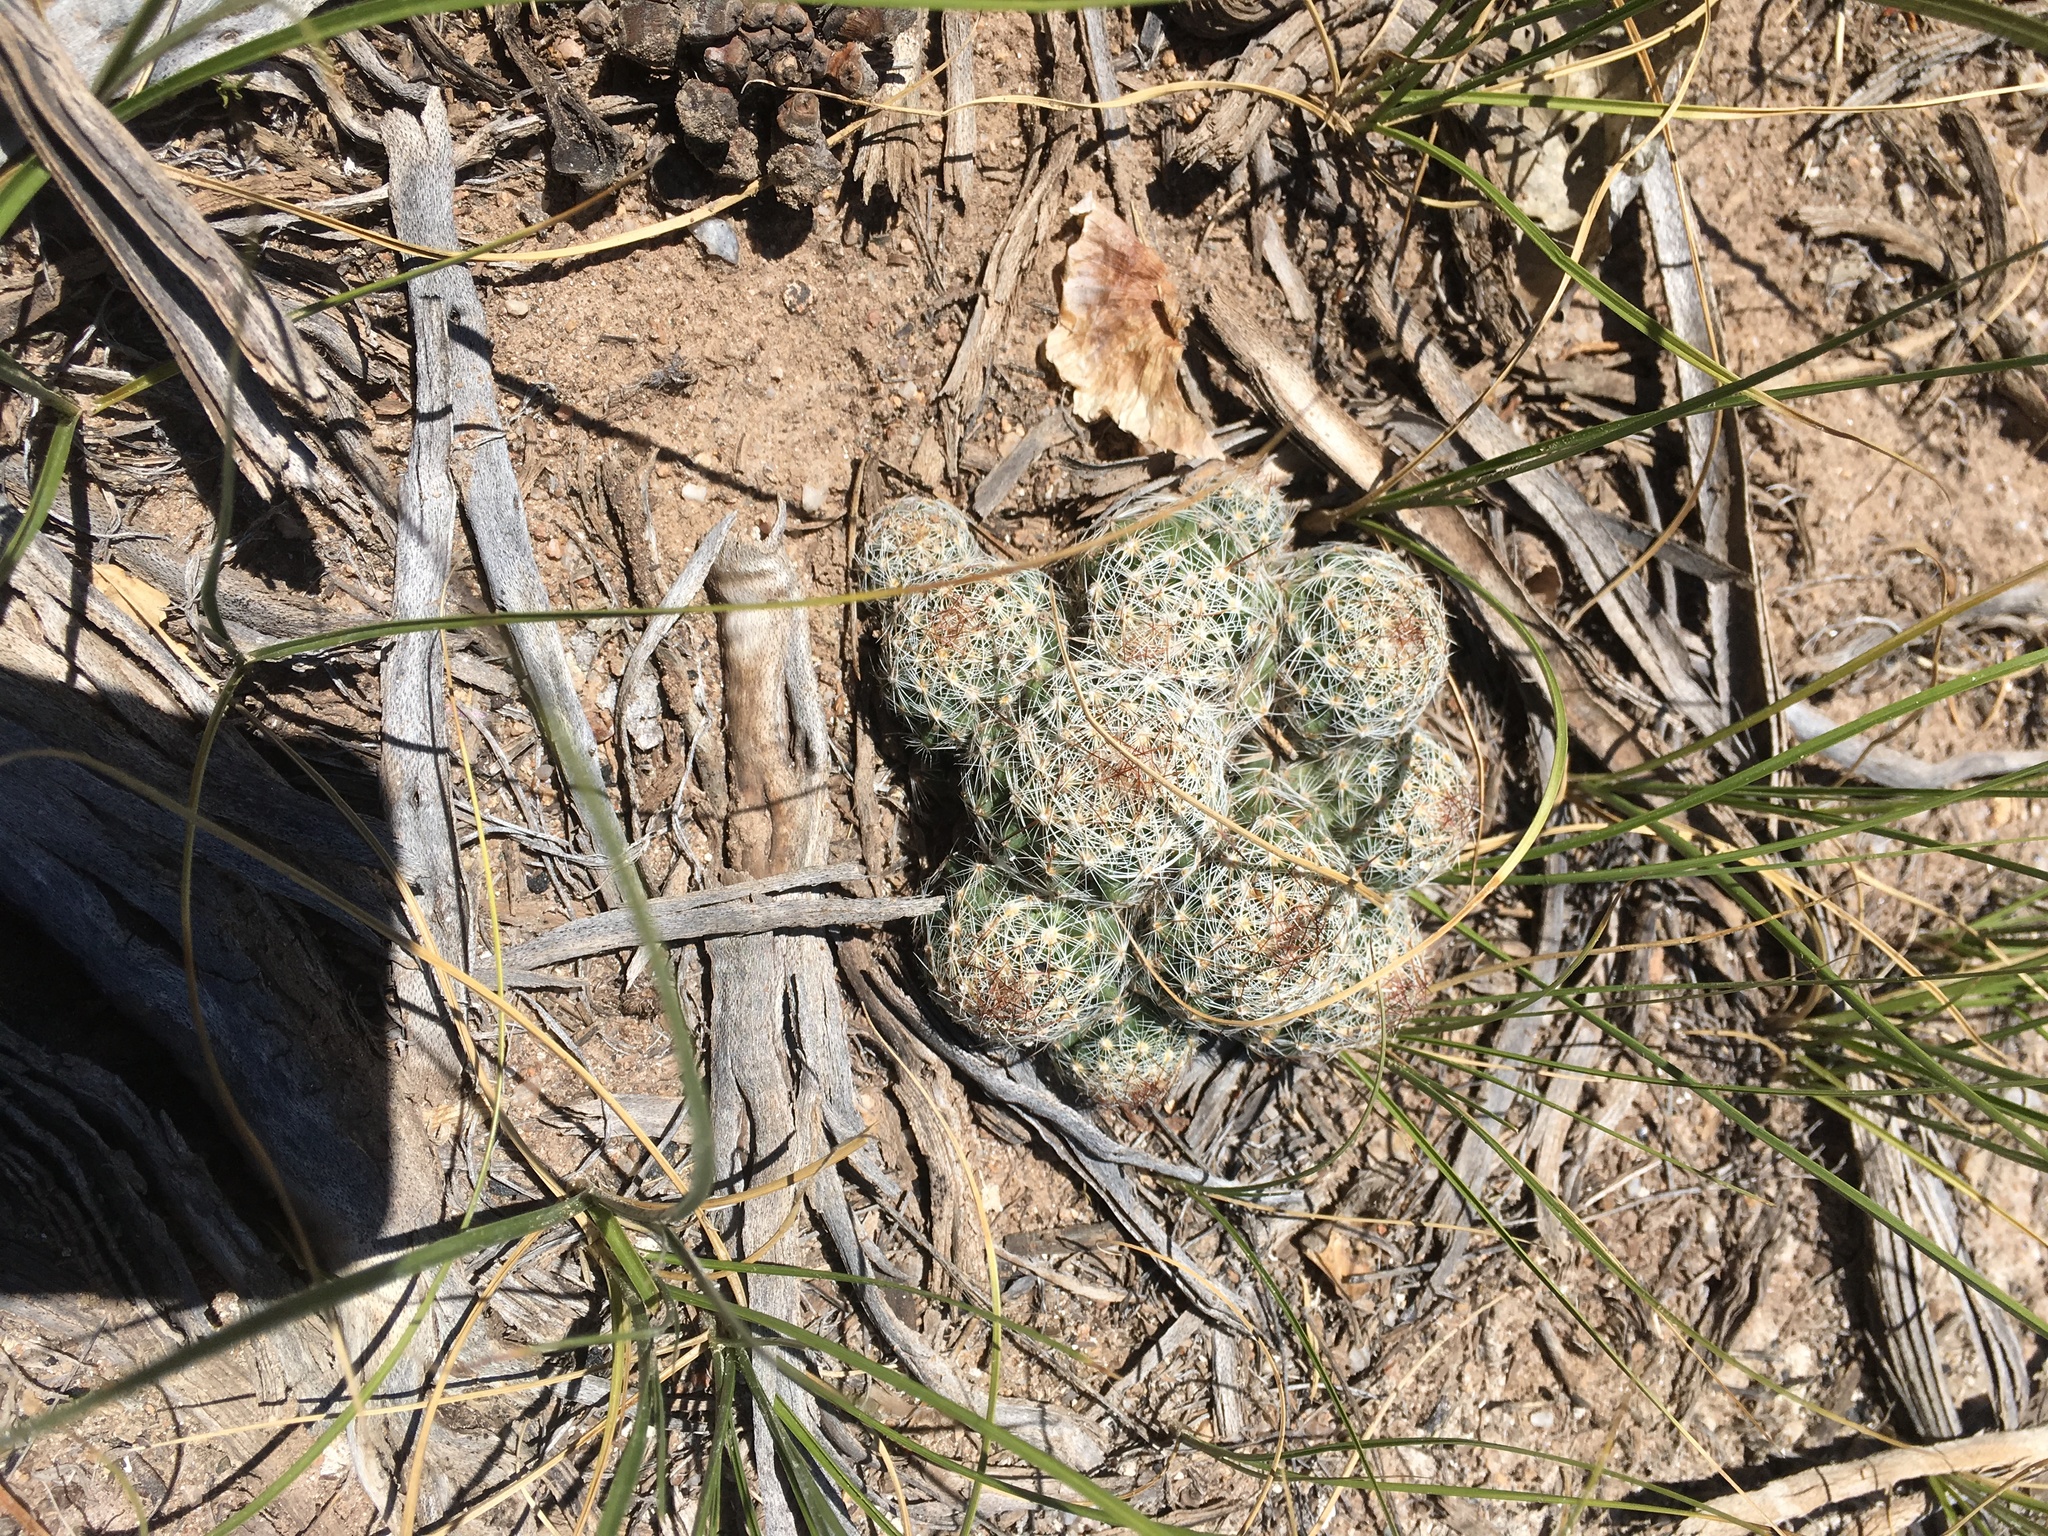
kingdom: Plantae
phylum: Tracheophyta
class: Magnoliopsida
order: Caryophyllales
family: Cactaceae
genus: Pelecyphora
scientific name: Pelecyphora vivipara
